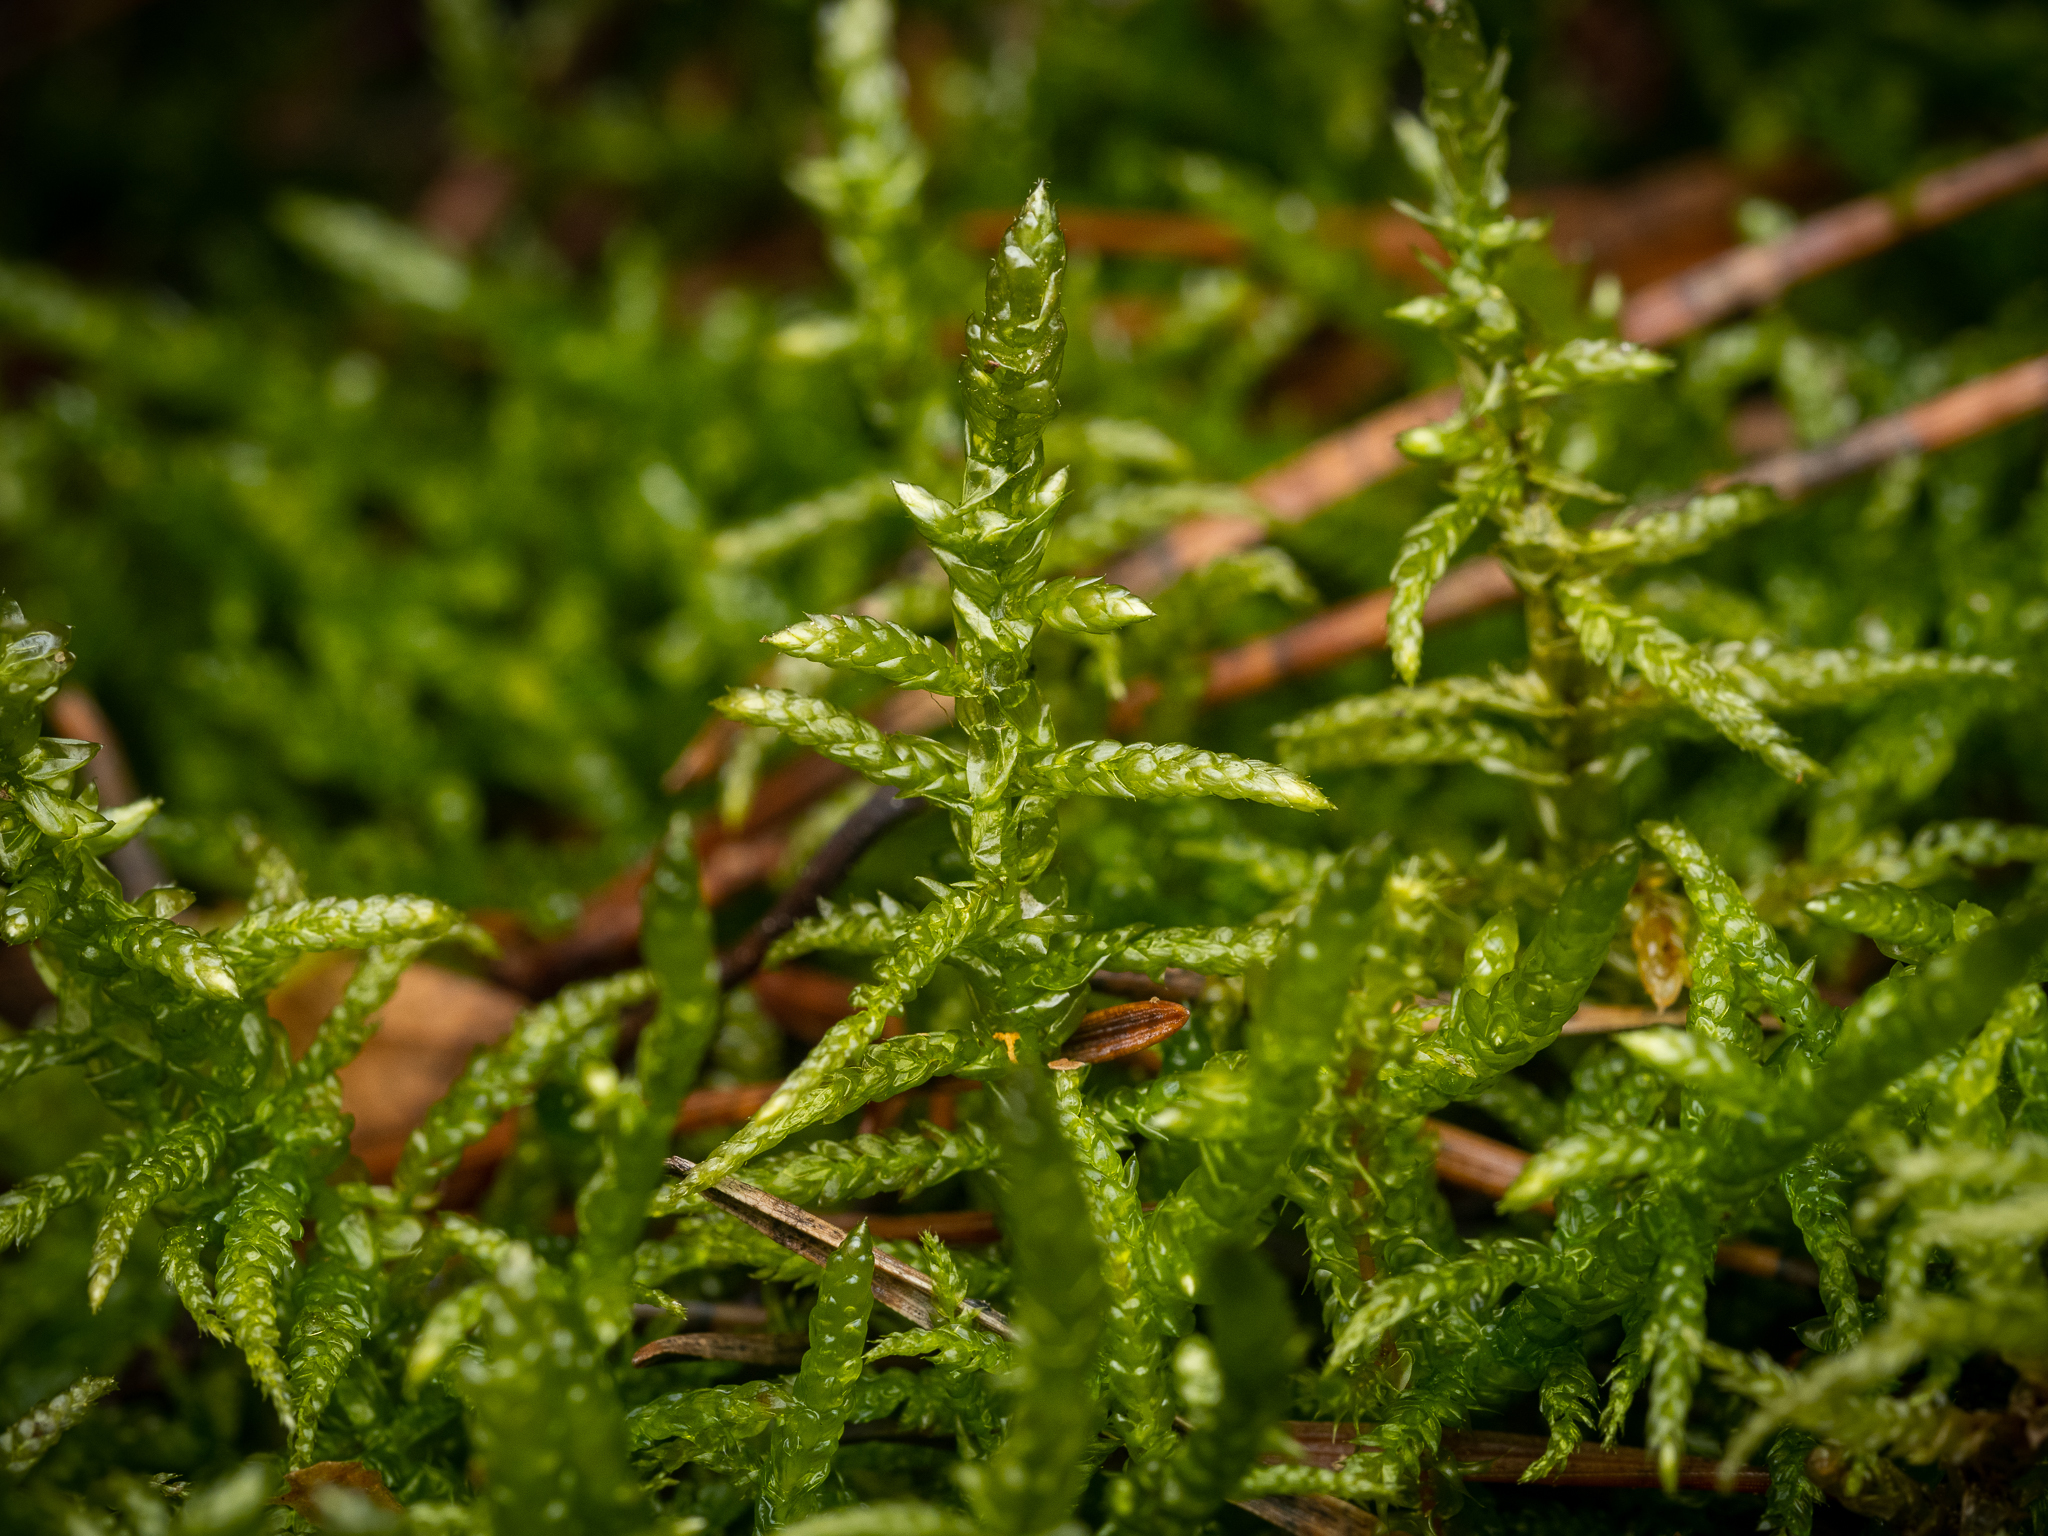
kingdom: Plantae
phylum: Bryophyta
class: Bryopsida
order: Hypnales
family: Brachytheciaceae
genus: Pseudoscleropodium
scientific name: Pseudoscleropodium purum
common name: Neat feather-moss
